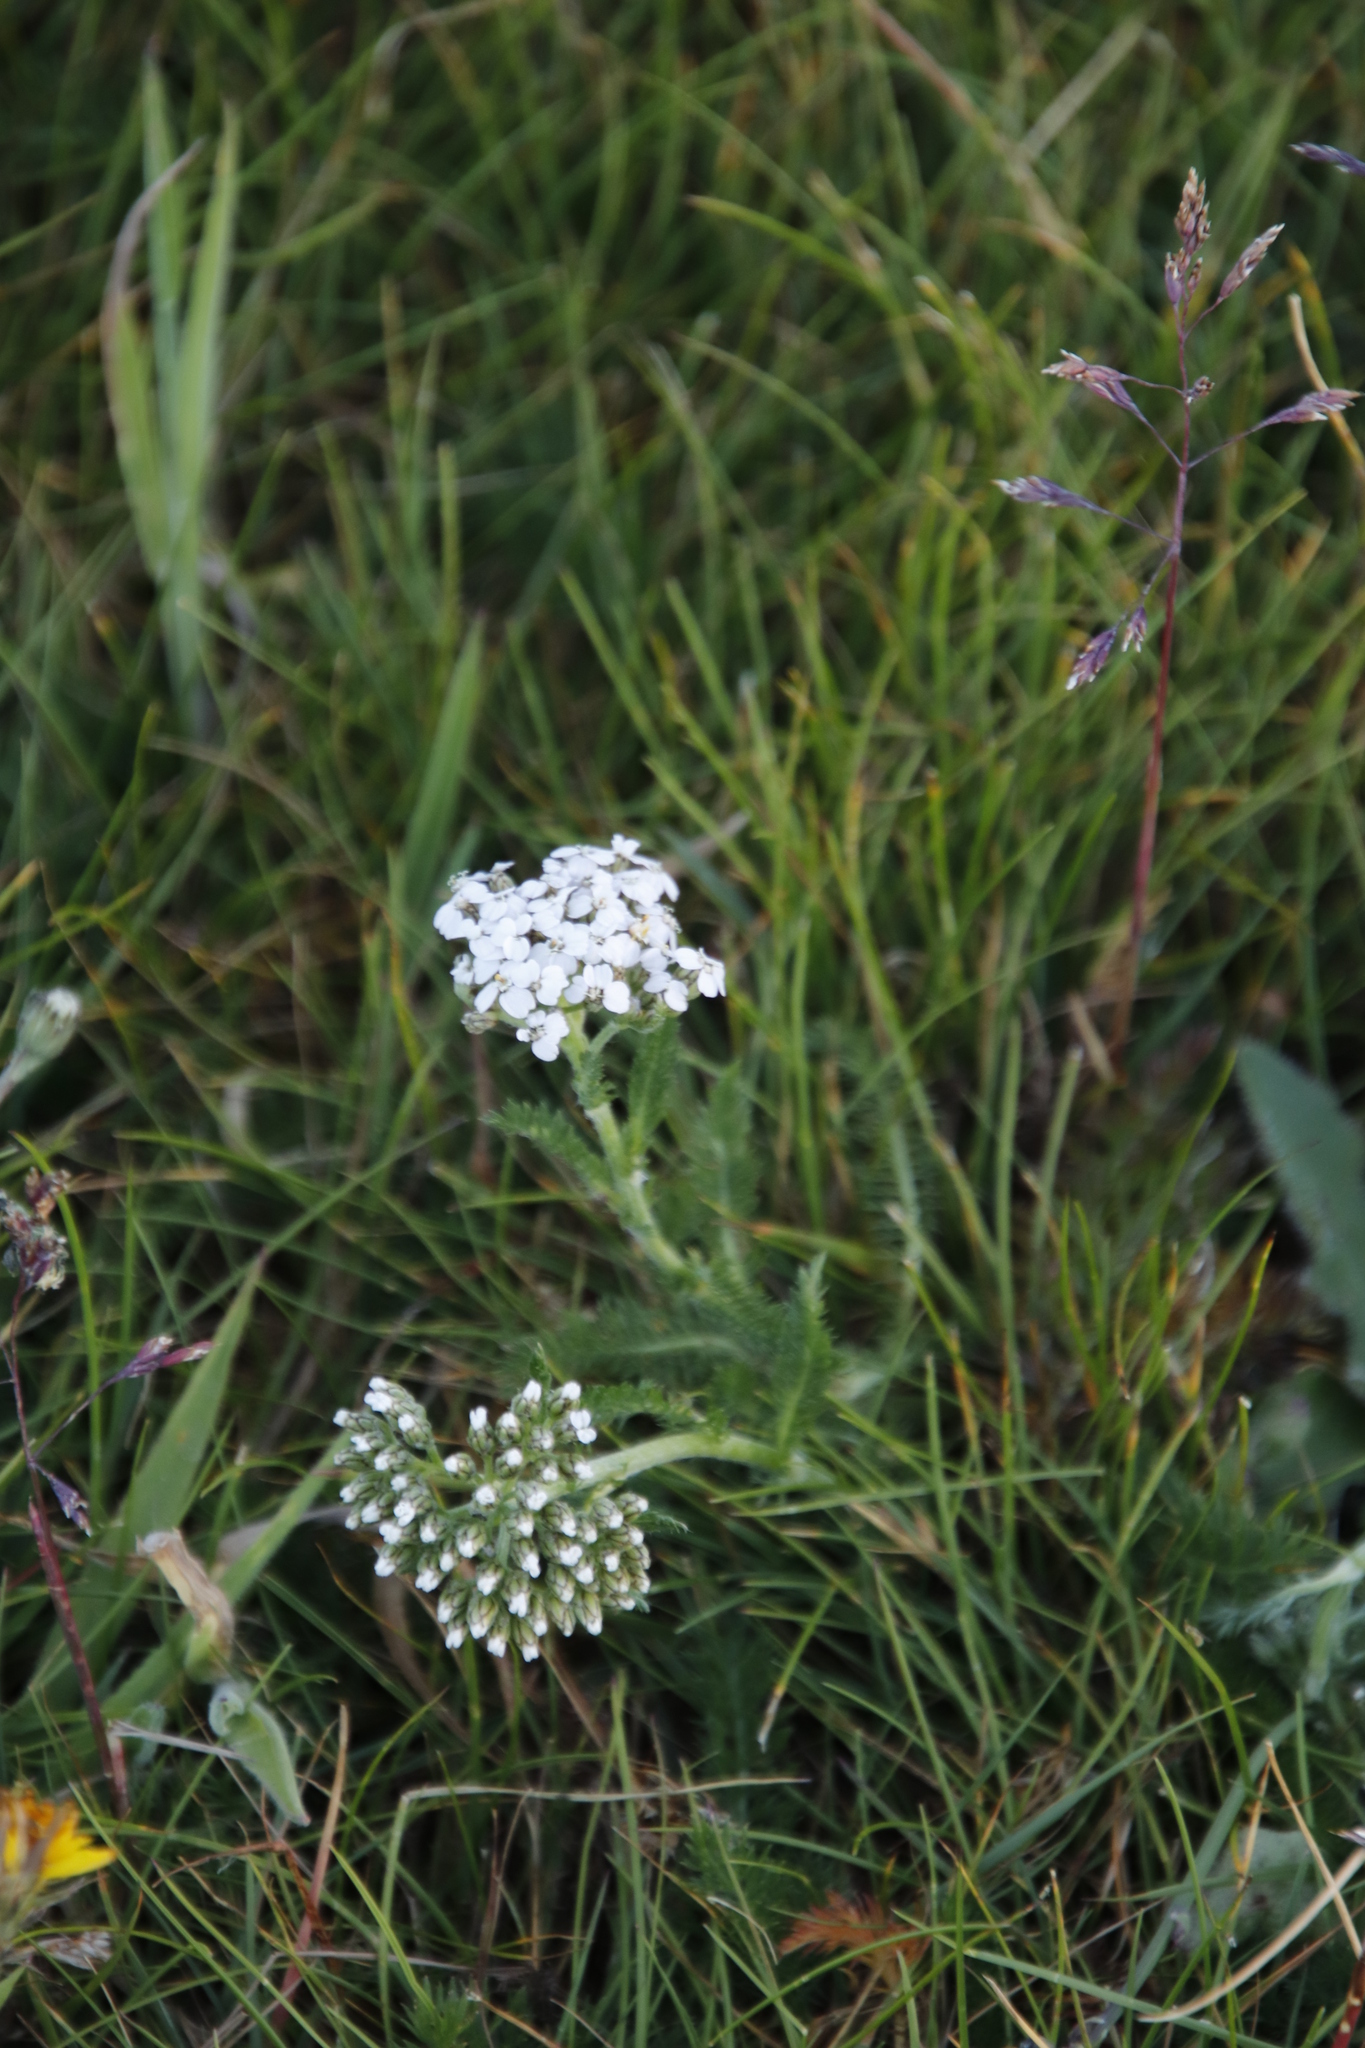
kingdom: Plantae
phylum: Tracheophyta
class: Magnoliopsida
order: Asterales
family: Asteraceae
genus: Achillea
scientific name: Achillea millefolium
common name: Yarrow
